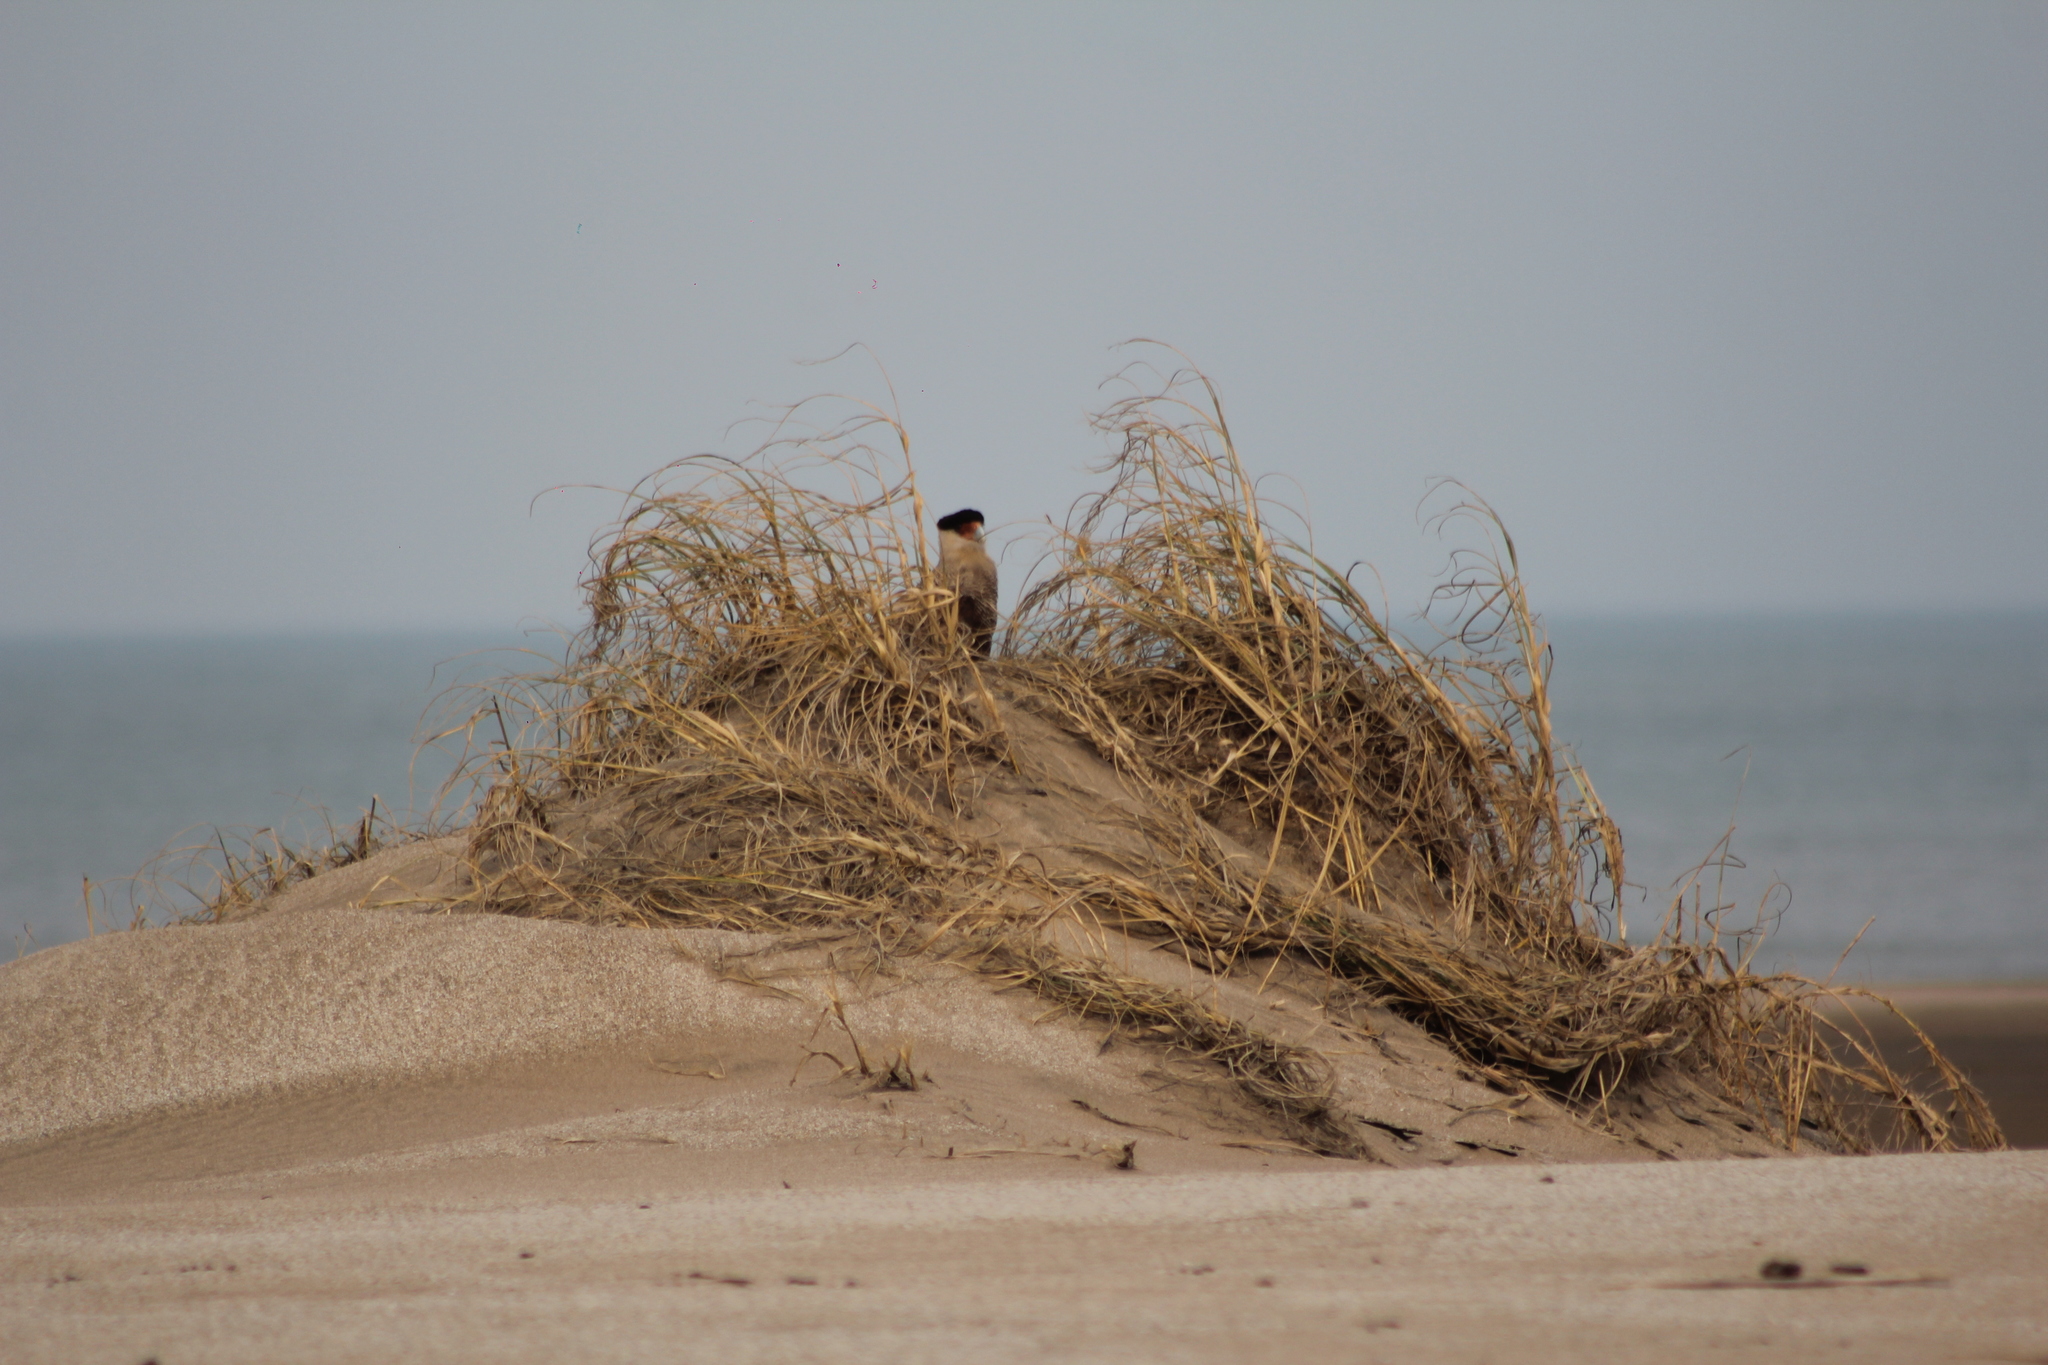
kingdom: Animalia
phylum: Chordata
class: Aves
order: Falconiformes
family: Falconidae
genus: Caracara
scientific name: Caracara plancus
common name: Southern caracara
